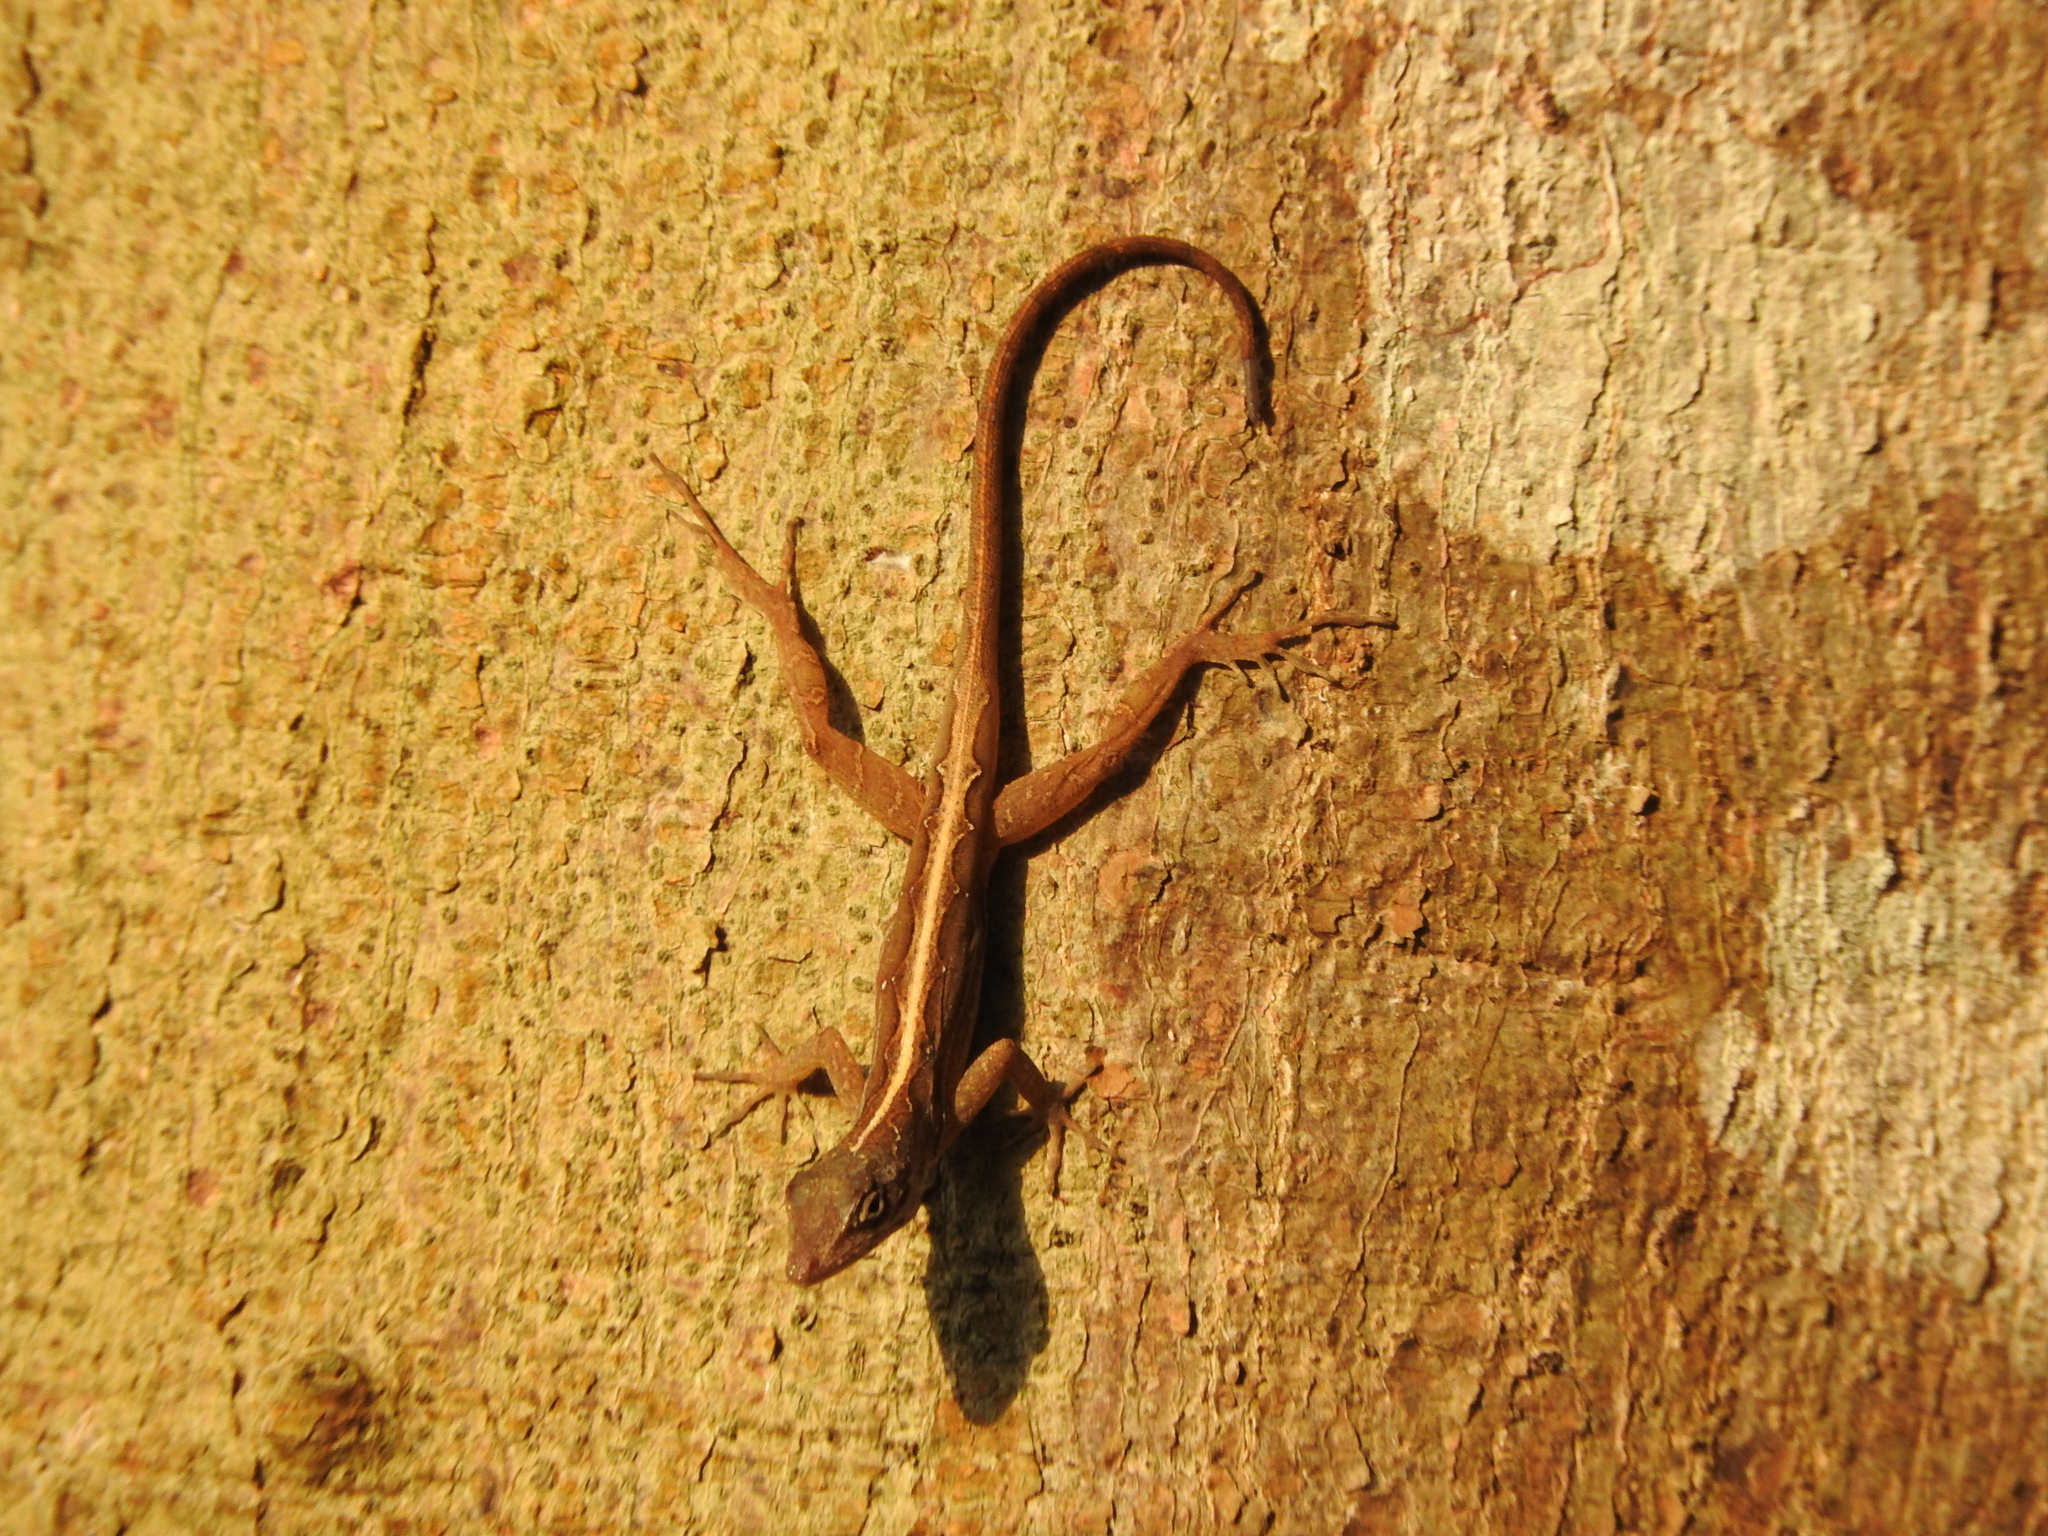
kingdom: Animalia
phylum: Chordata
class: Squamata
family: Dactyloidae
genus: Anolis
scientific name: Anolis sagrei
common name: Brown anole
